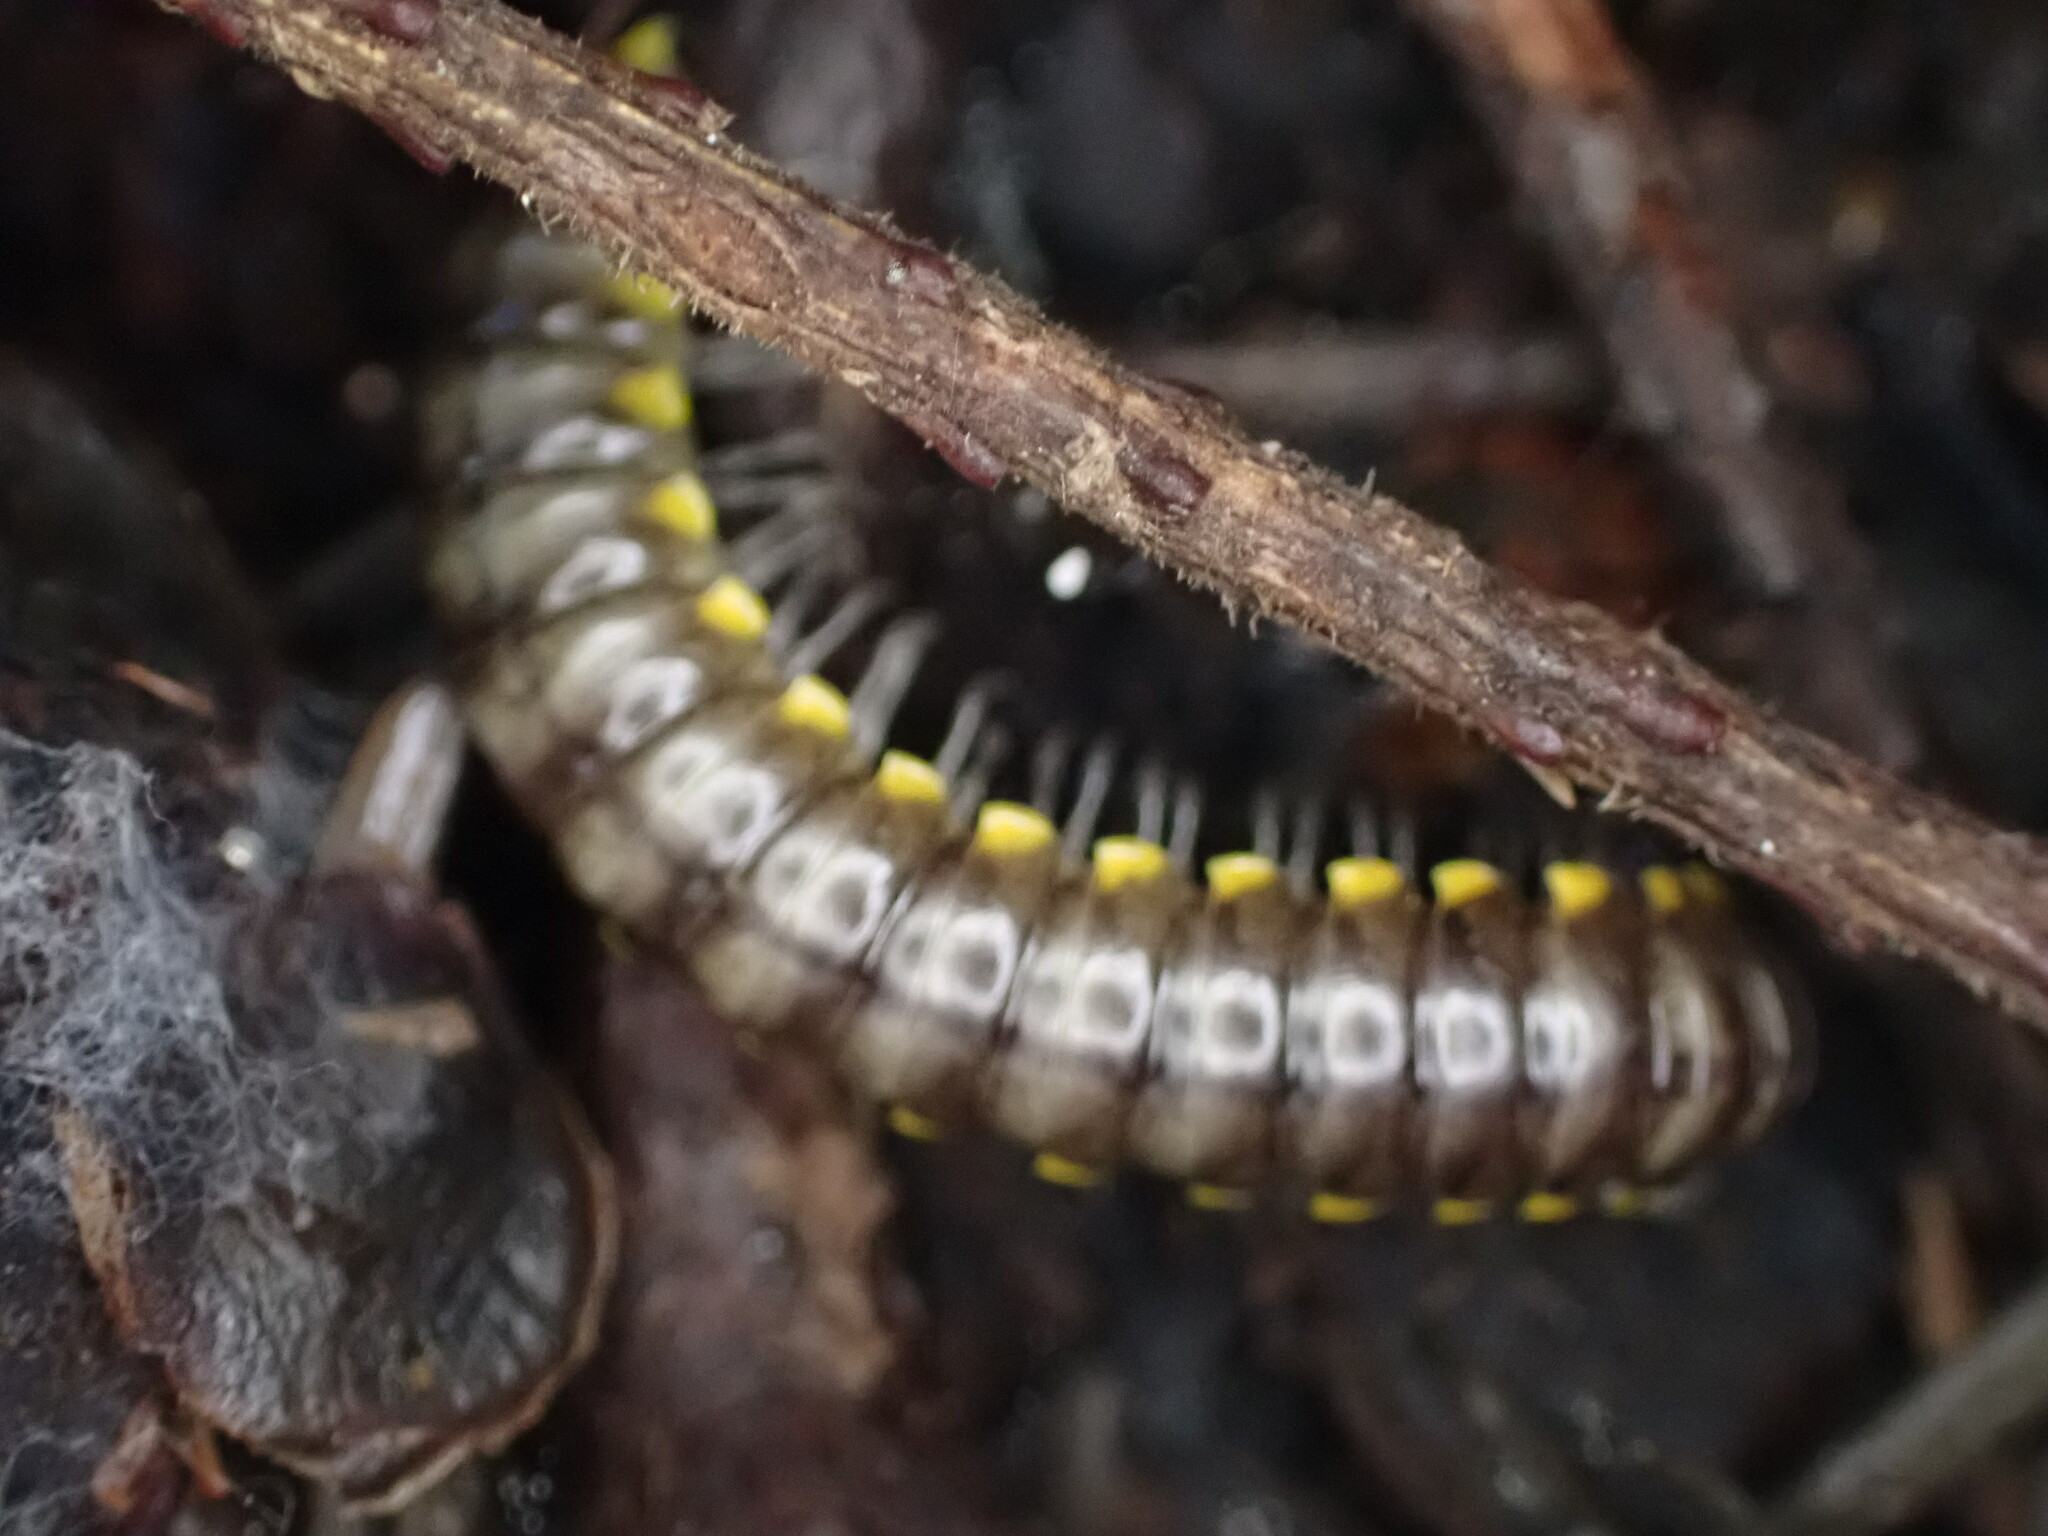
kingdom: Animalia
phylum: Arthropoda
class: Diplopoda
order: Polydesmida
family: Xystodesmidae
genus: Harpaphe
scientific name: Harpaphe haydeniana
